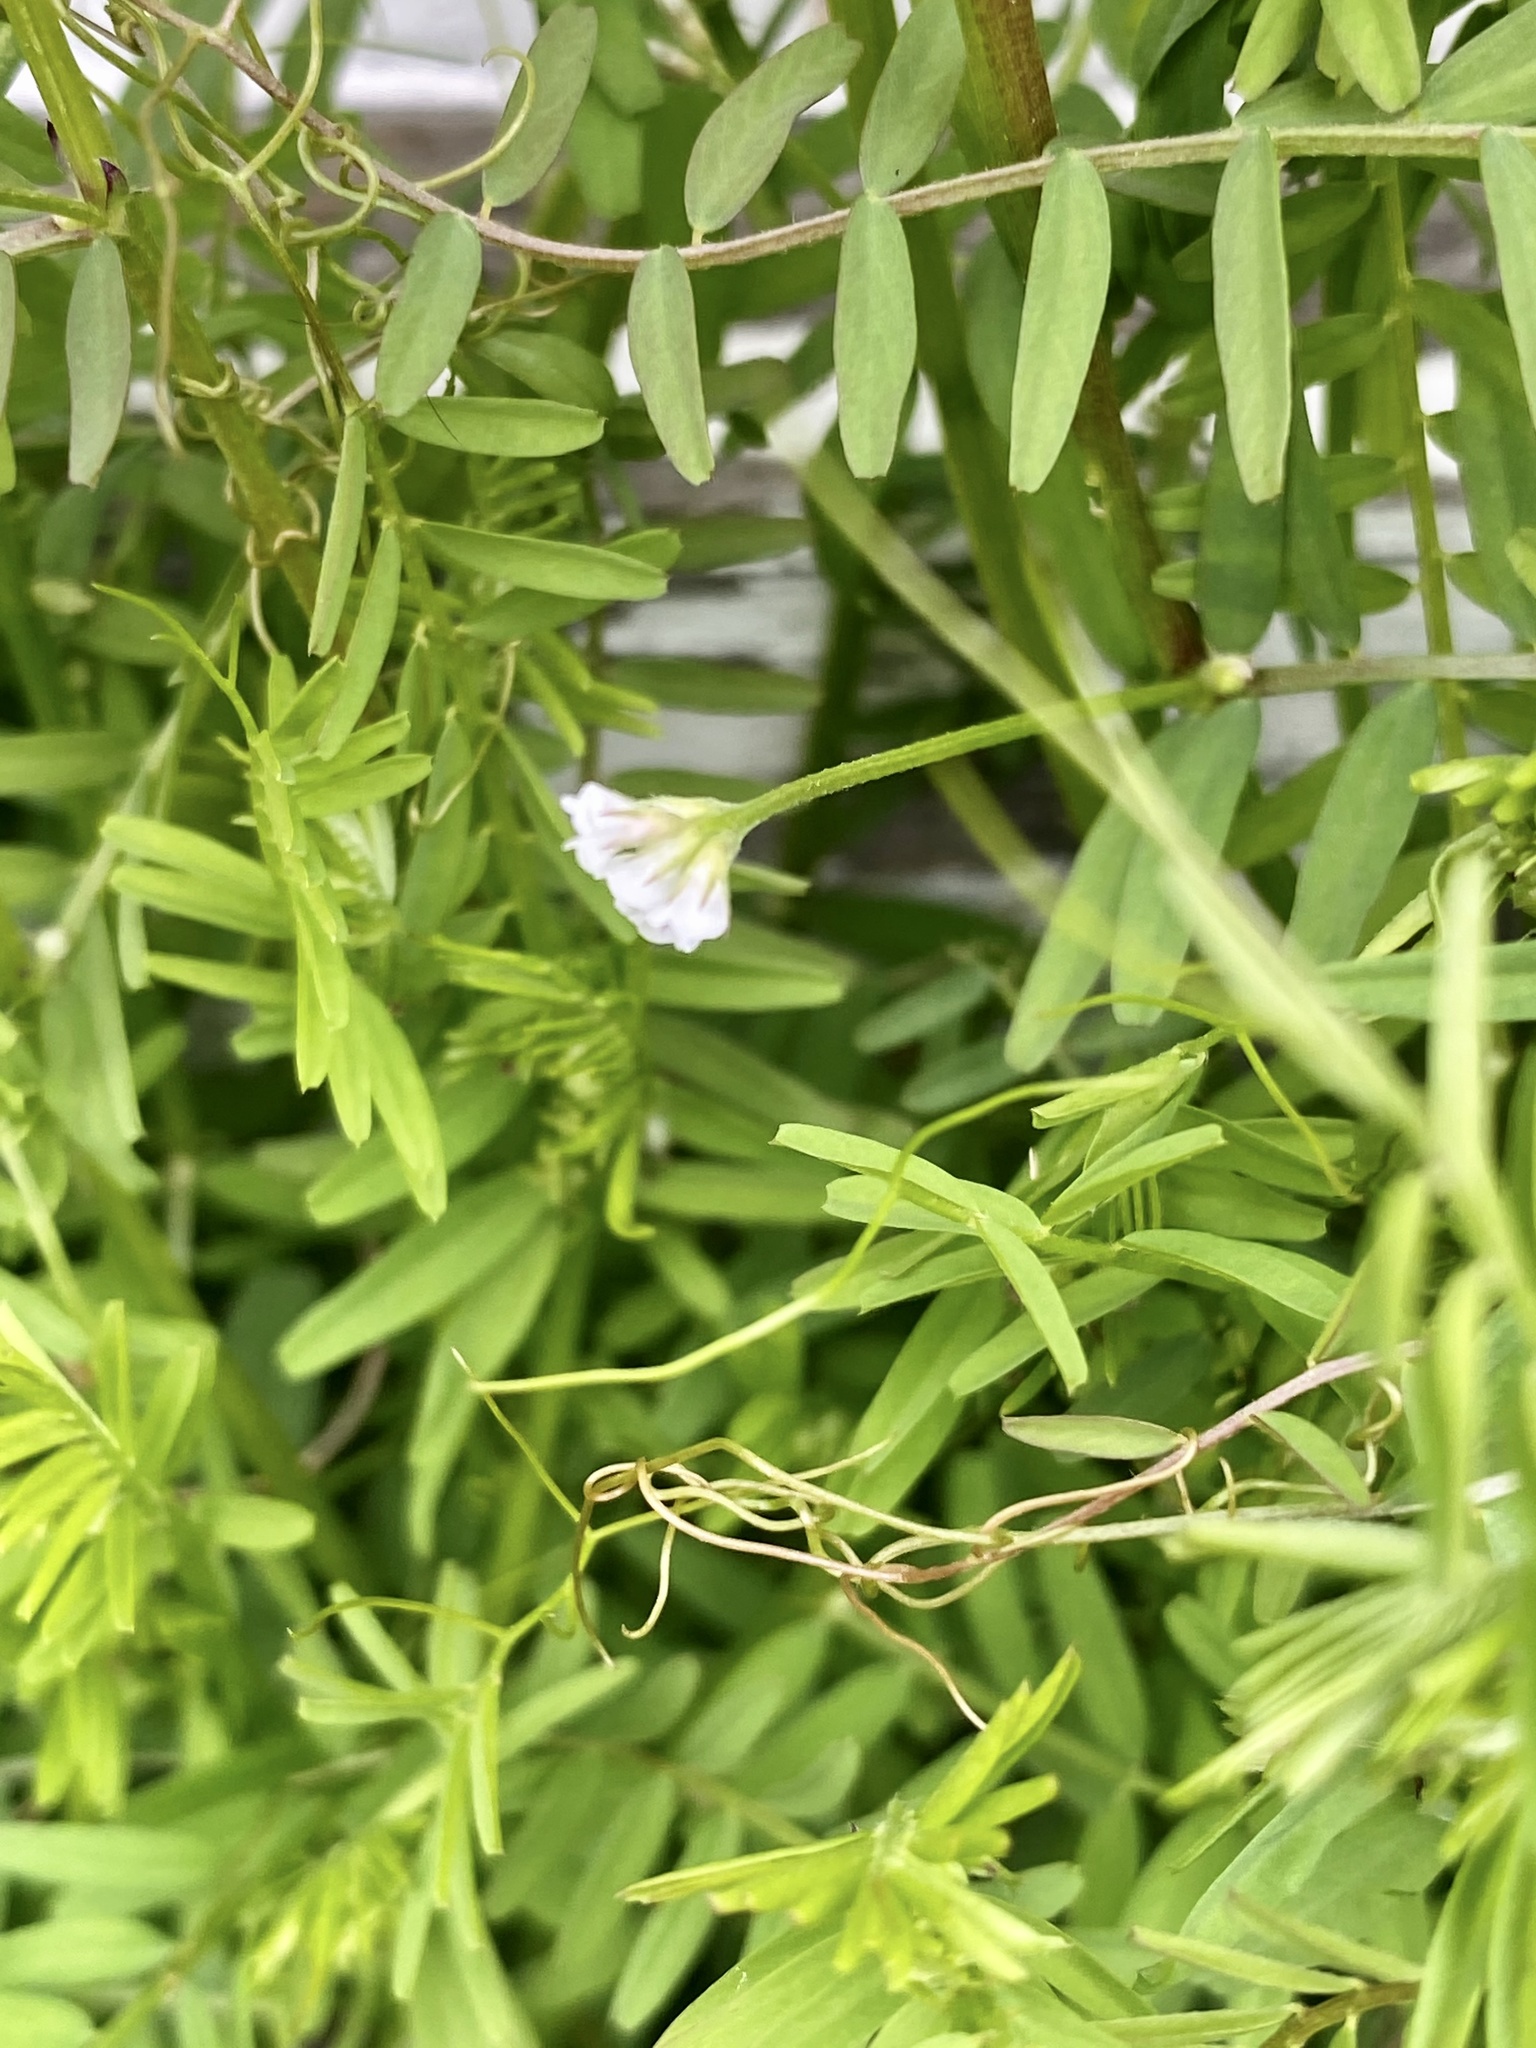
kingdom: Plantae
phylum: Tracheophyta
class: Magnoliopsida
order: Fabales
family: Fabaceae
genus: Vicia
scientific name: Vicia hirsuta
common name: Tiny vetch
